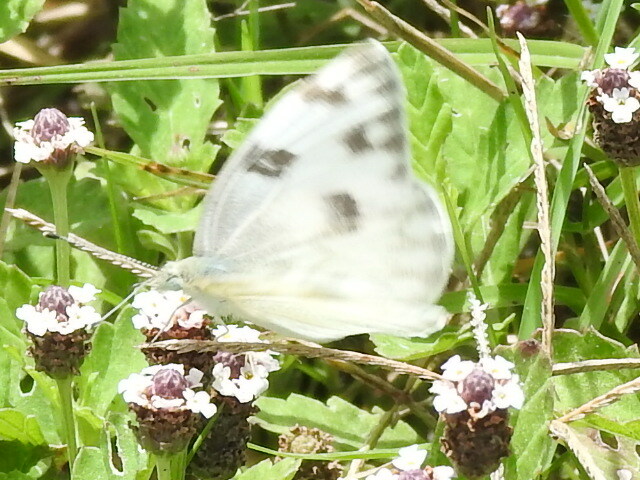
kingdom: Animalia
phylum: Arthropoda
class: Insecta
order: Lepidoptera
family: Pieridae
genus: Pontia
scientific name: Pontia protodice
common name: Checkered white
